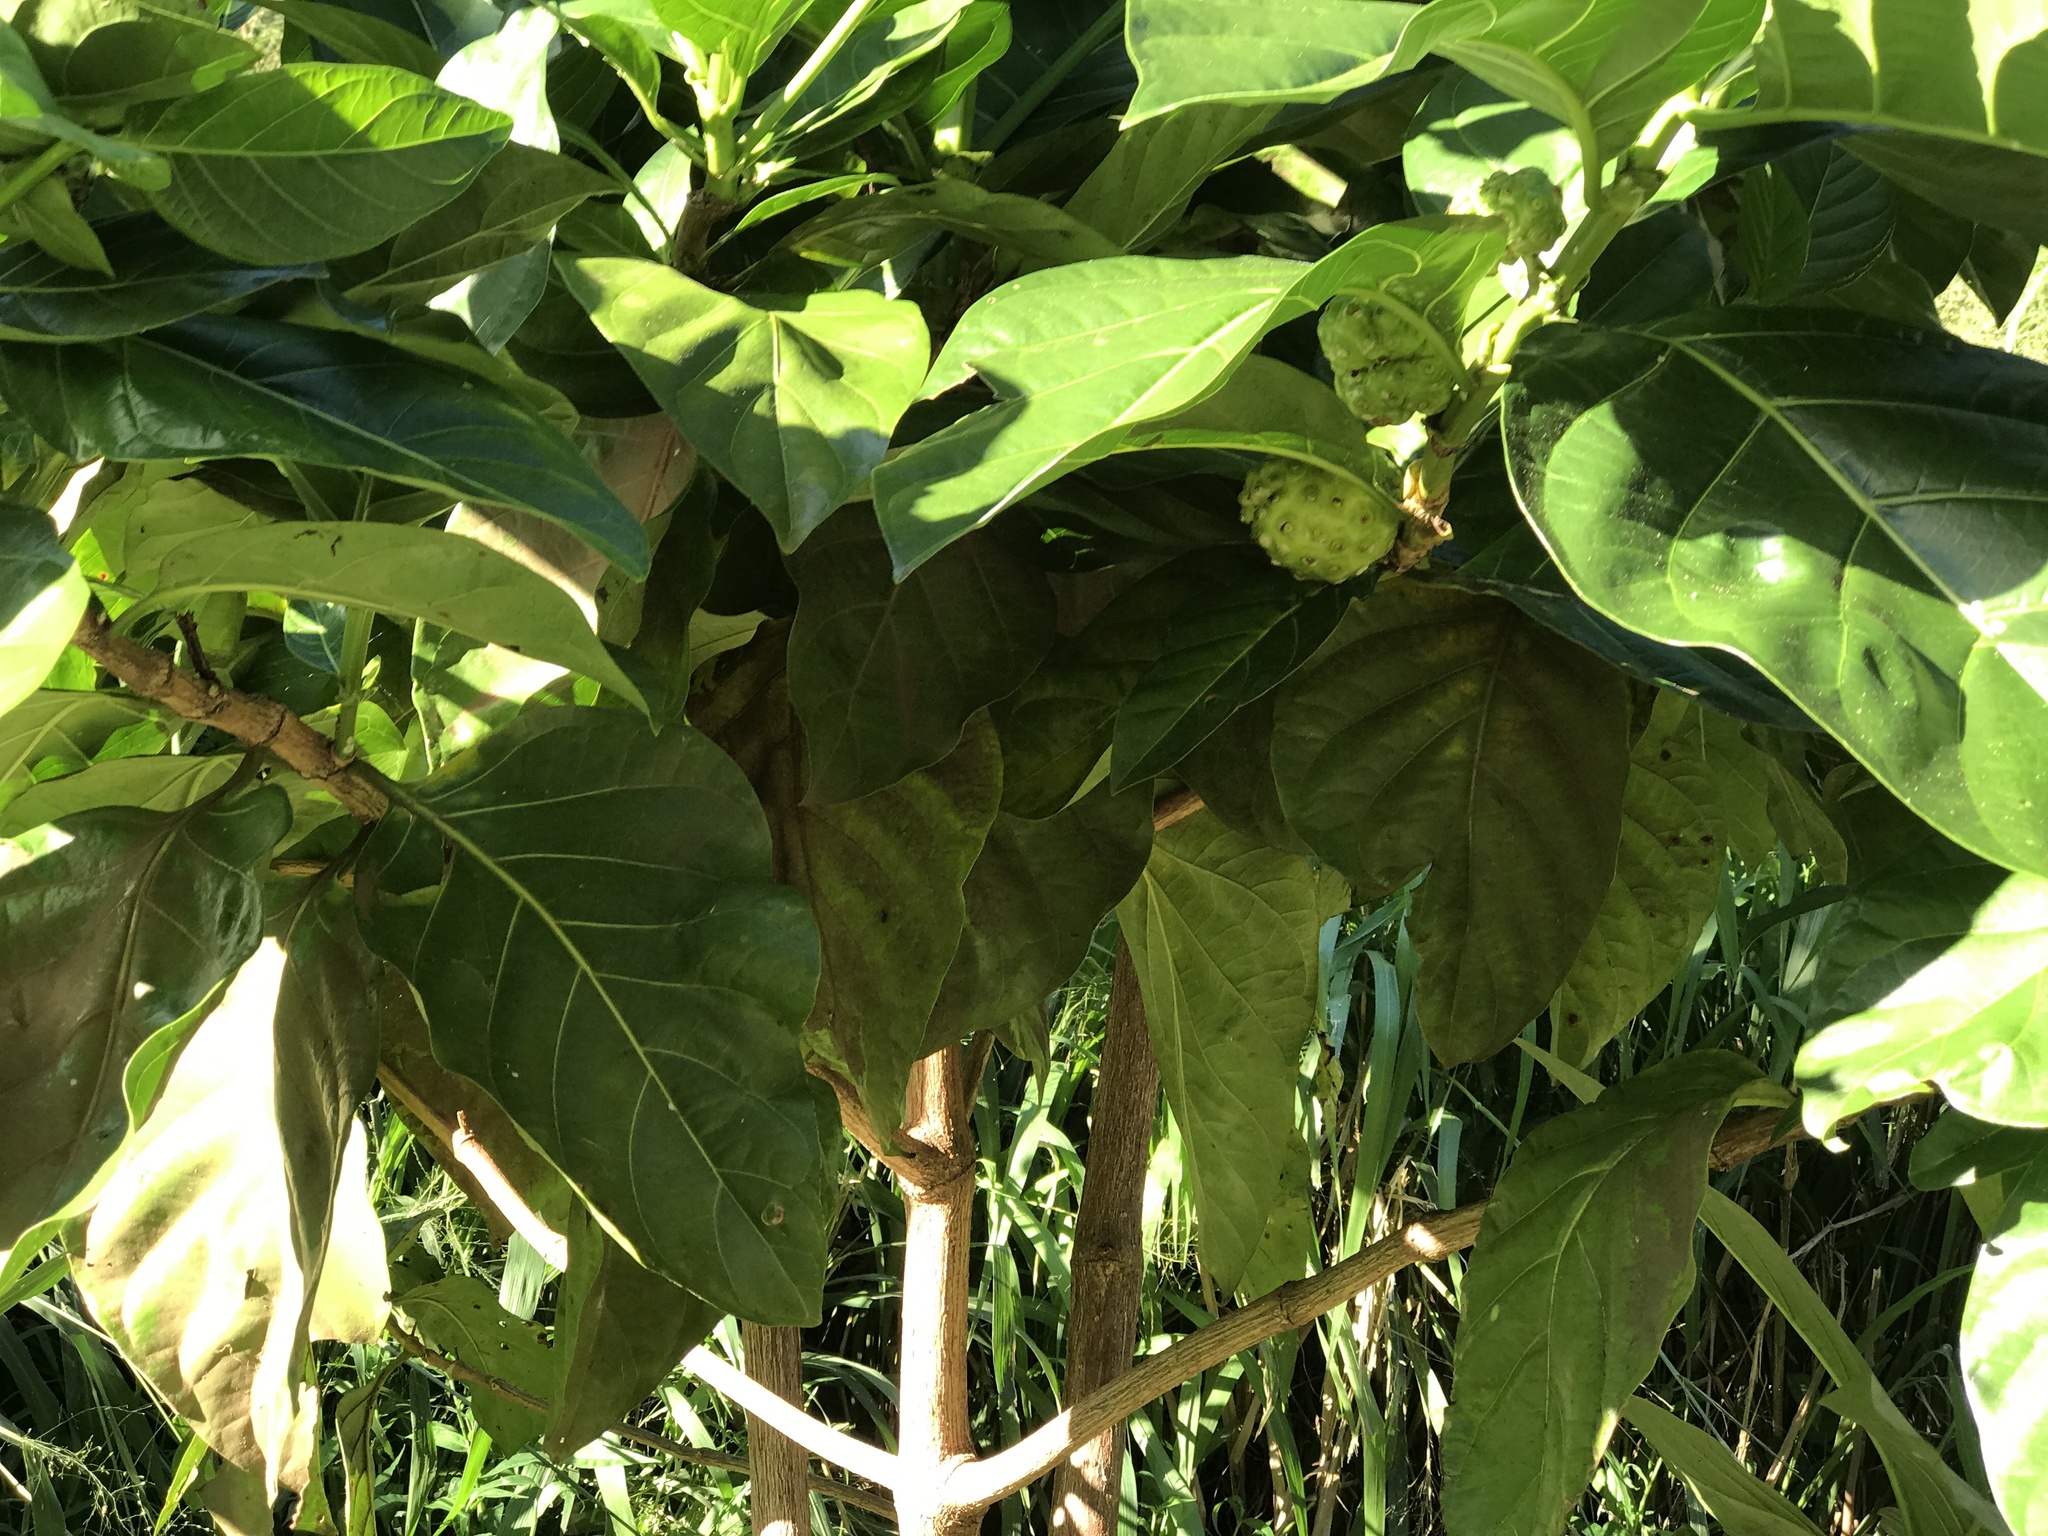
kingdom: Plantae
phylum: Tracheophyta
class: Magnoliopsida
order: Gentianales
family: Rubiaceae
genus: Morinda
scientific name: Morinda citrifolia
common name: Indian-mulberry
